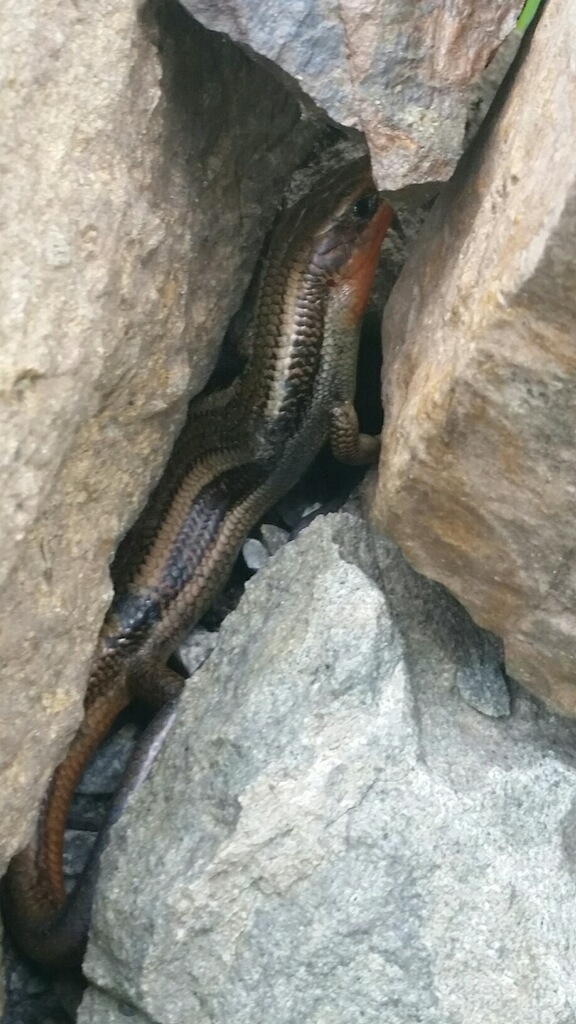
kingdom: Animalia
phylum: Chordata
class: Squamata
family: Scincidae
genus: Plestiodon
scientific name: Plestiodon skiltonianus
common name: Coronado island skink [interparietalis]
